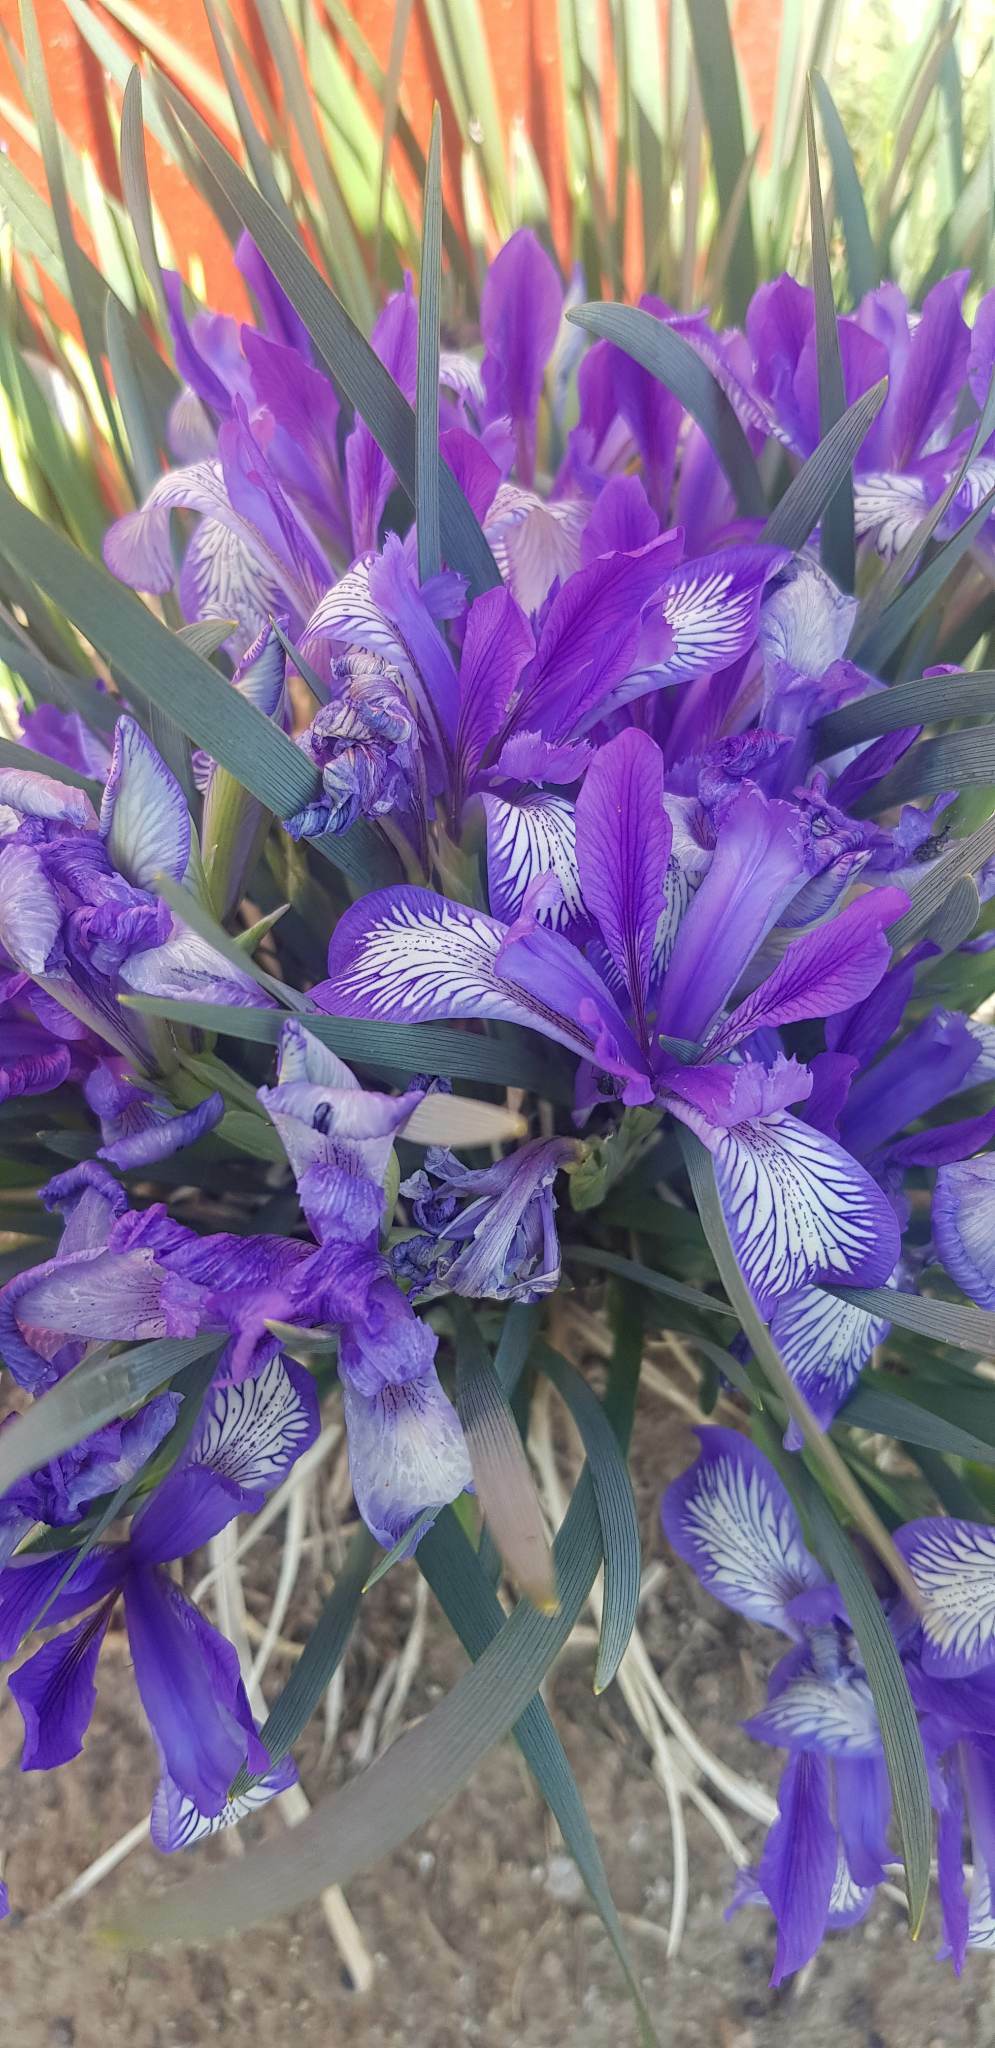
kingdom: Plantae
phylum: Tracheophyta
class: Liliopsida
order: Asparagales
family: Iridaceae
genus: Iris
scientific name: Iris lactea
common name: White-flower chinese iris
